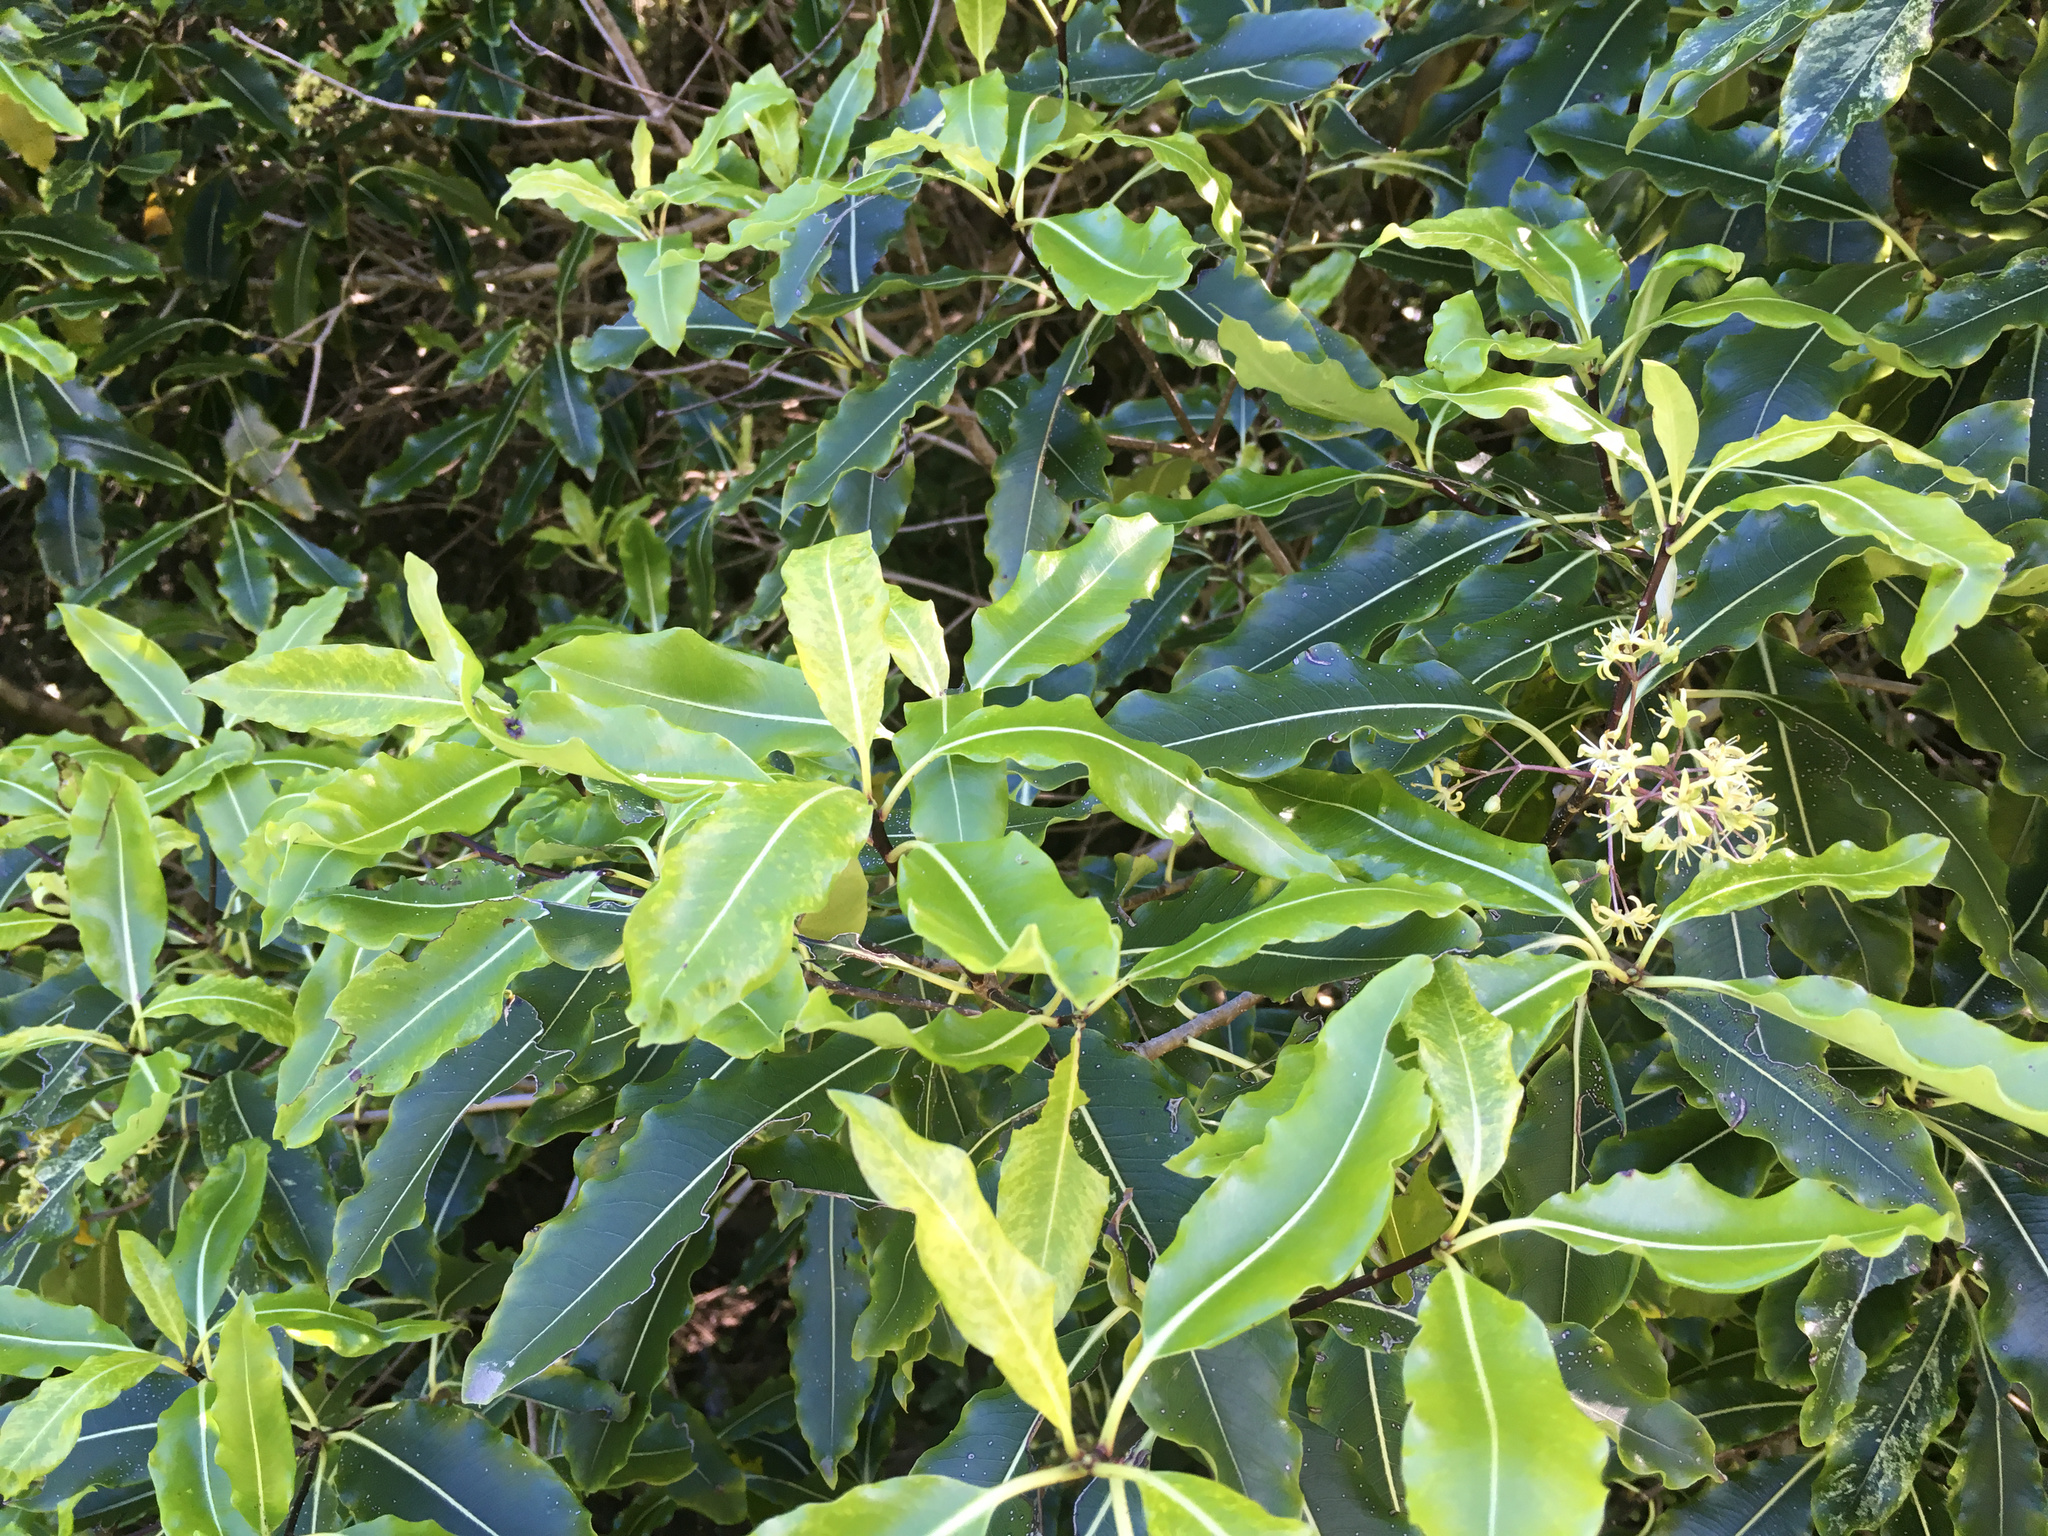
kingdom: Plantae
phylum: Tracheophyta
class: Magnoliopsida
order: Apiales
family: Pittosporaceae
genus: Pittosporum
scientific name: Pittosporum eugenioides
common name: Lemonwood
